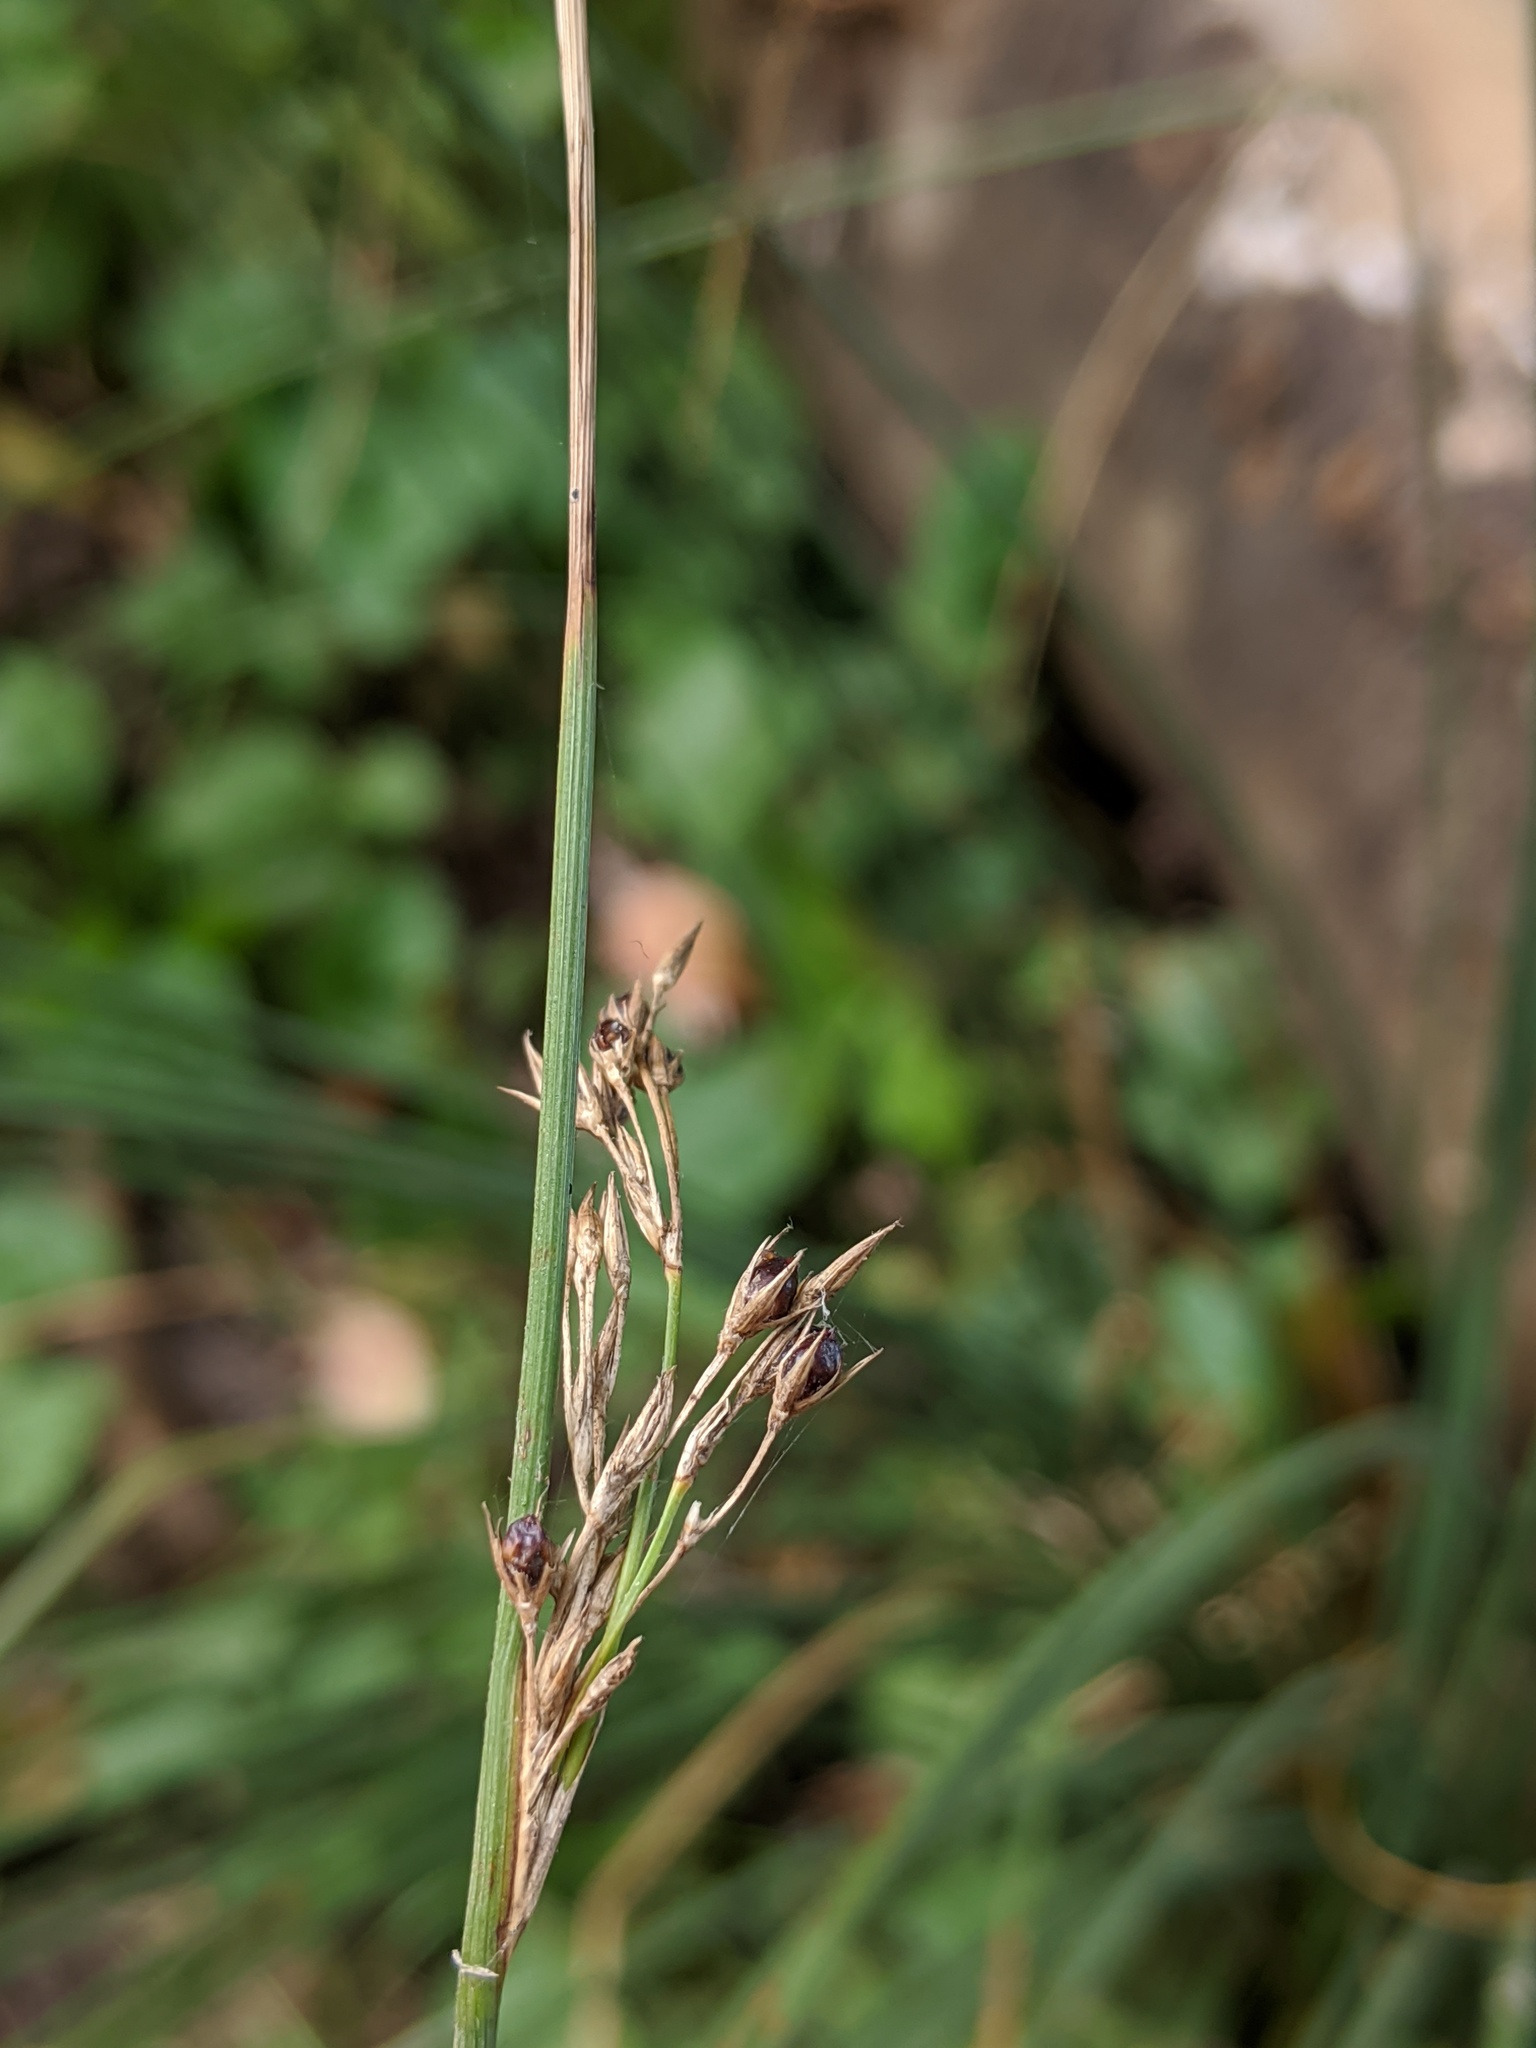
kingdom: Plantae
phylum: Tracheophyta
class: Liliopsida
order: Poales
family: Juncaceae
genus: Juncus
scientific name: Juncus inflexus
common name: Hard rush
